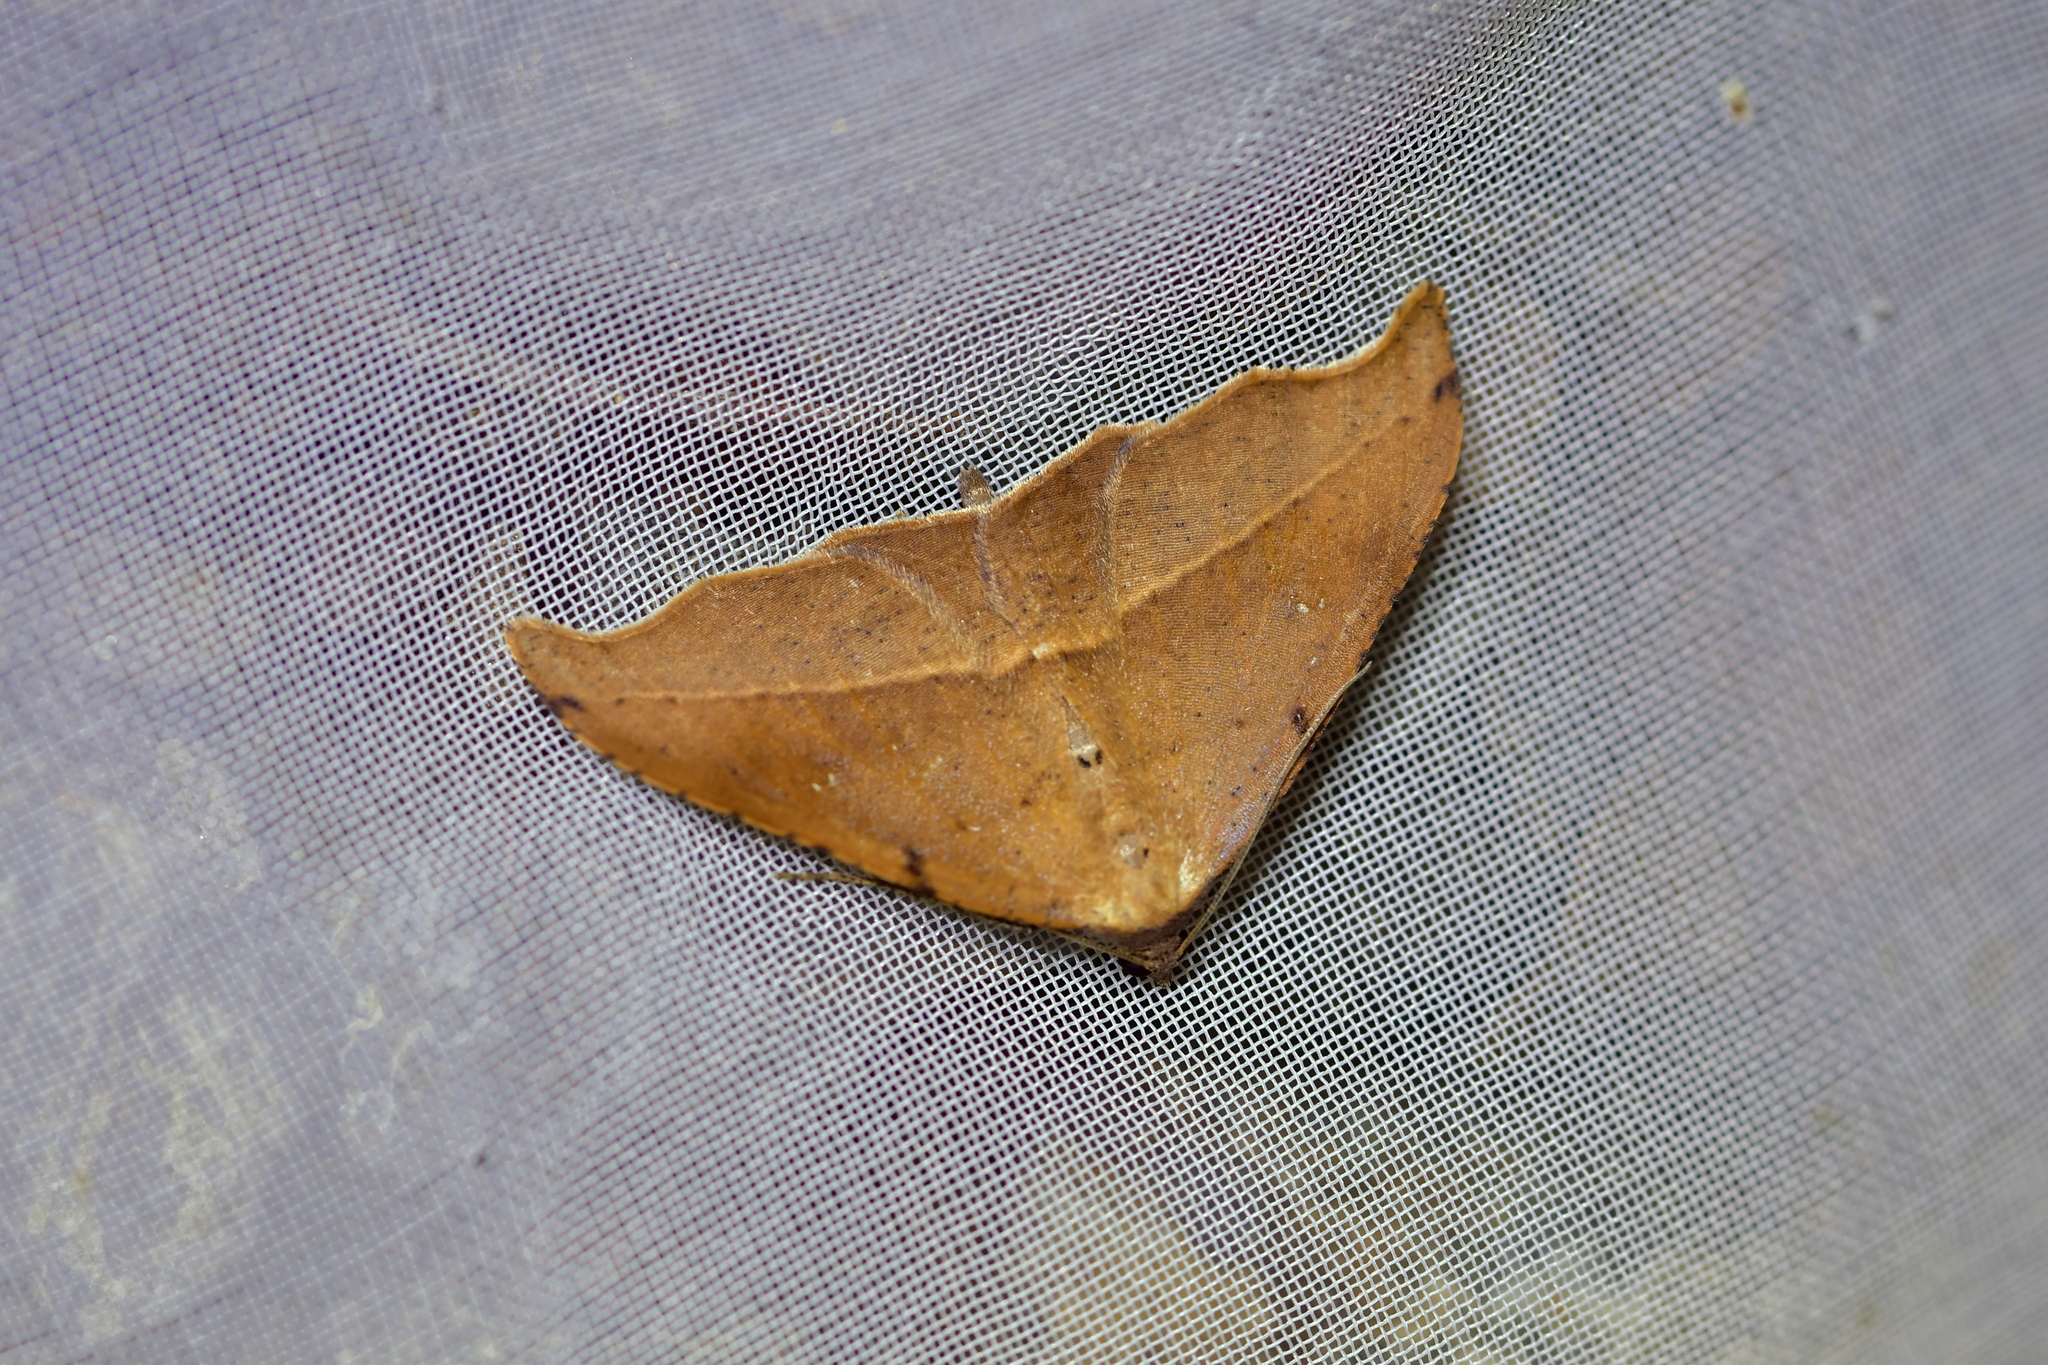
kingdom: Animalia
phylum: Arthropoda
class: Insecta
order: Lepidoptera
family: Geometridae
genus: Sarisa
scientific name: Sarisa muriferata
